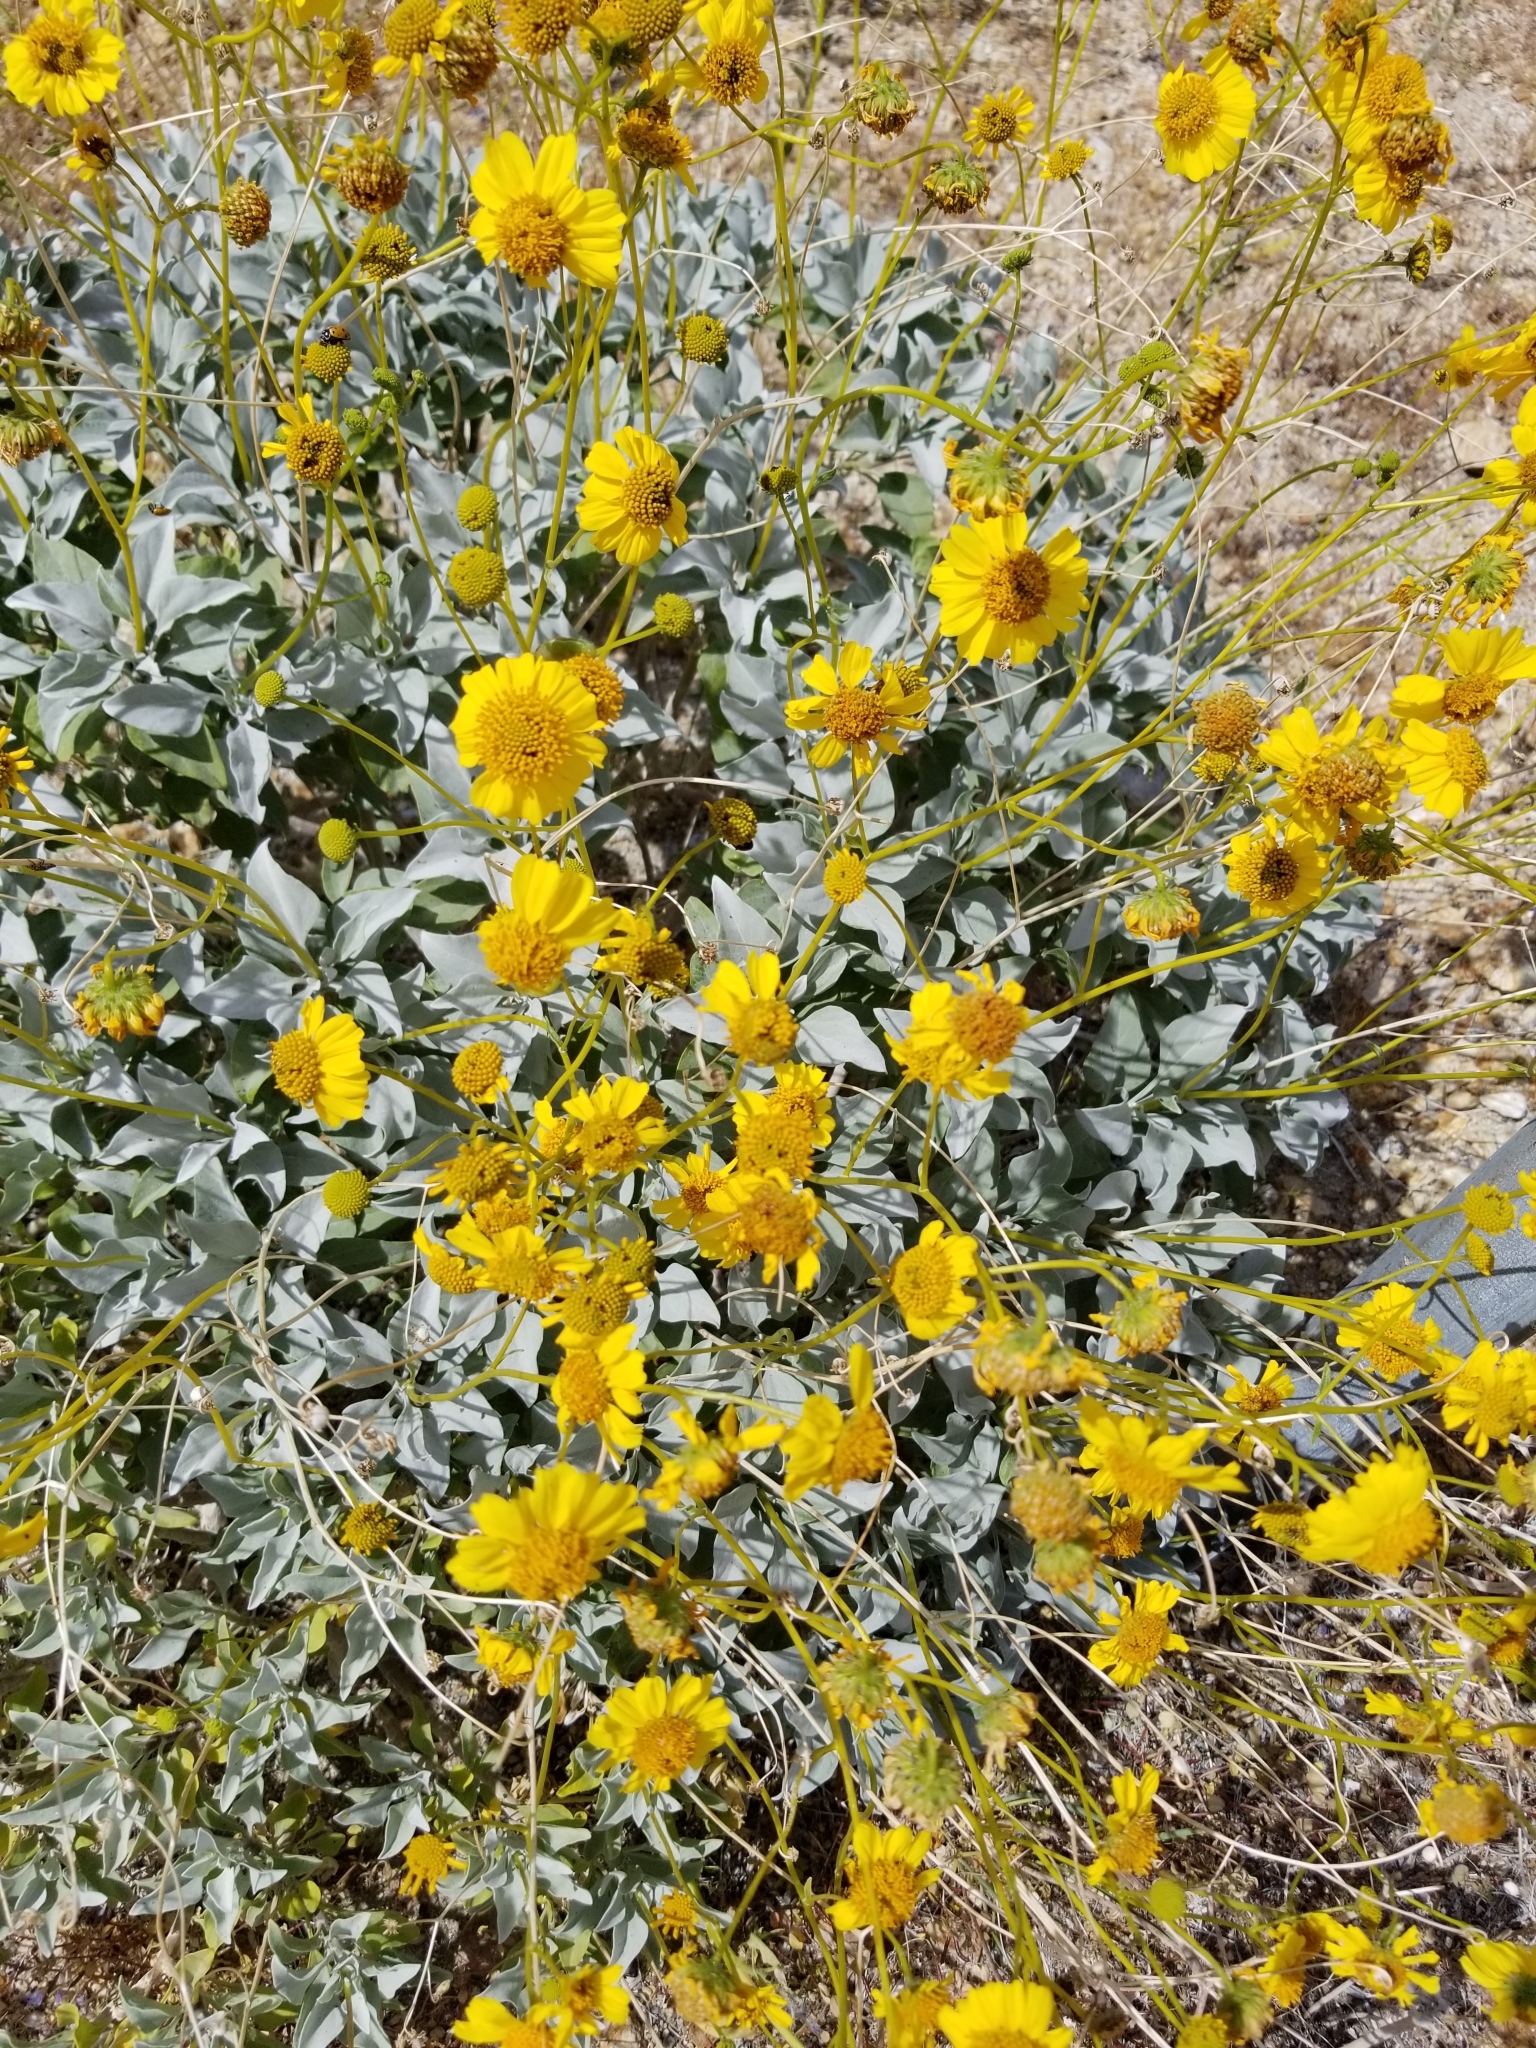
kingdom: Plantae
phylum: Tracheophyta
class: Magnoliopsida
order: Asterales
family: Asteraceae
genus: Encelia
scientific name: Encelia farinosa
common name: Brittlebush
